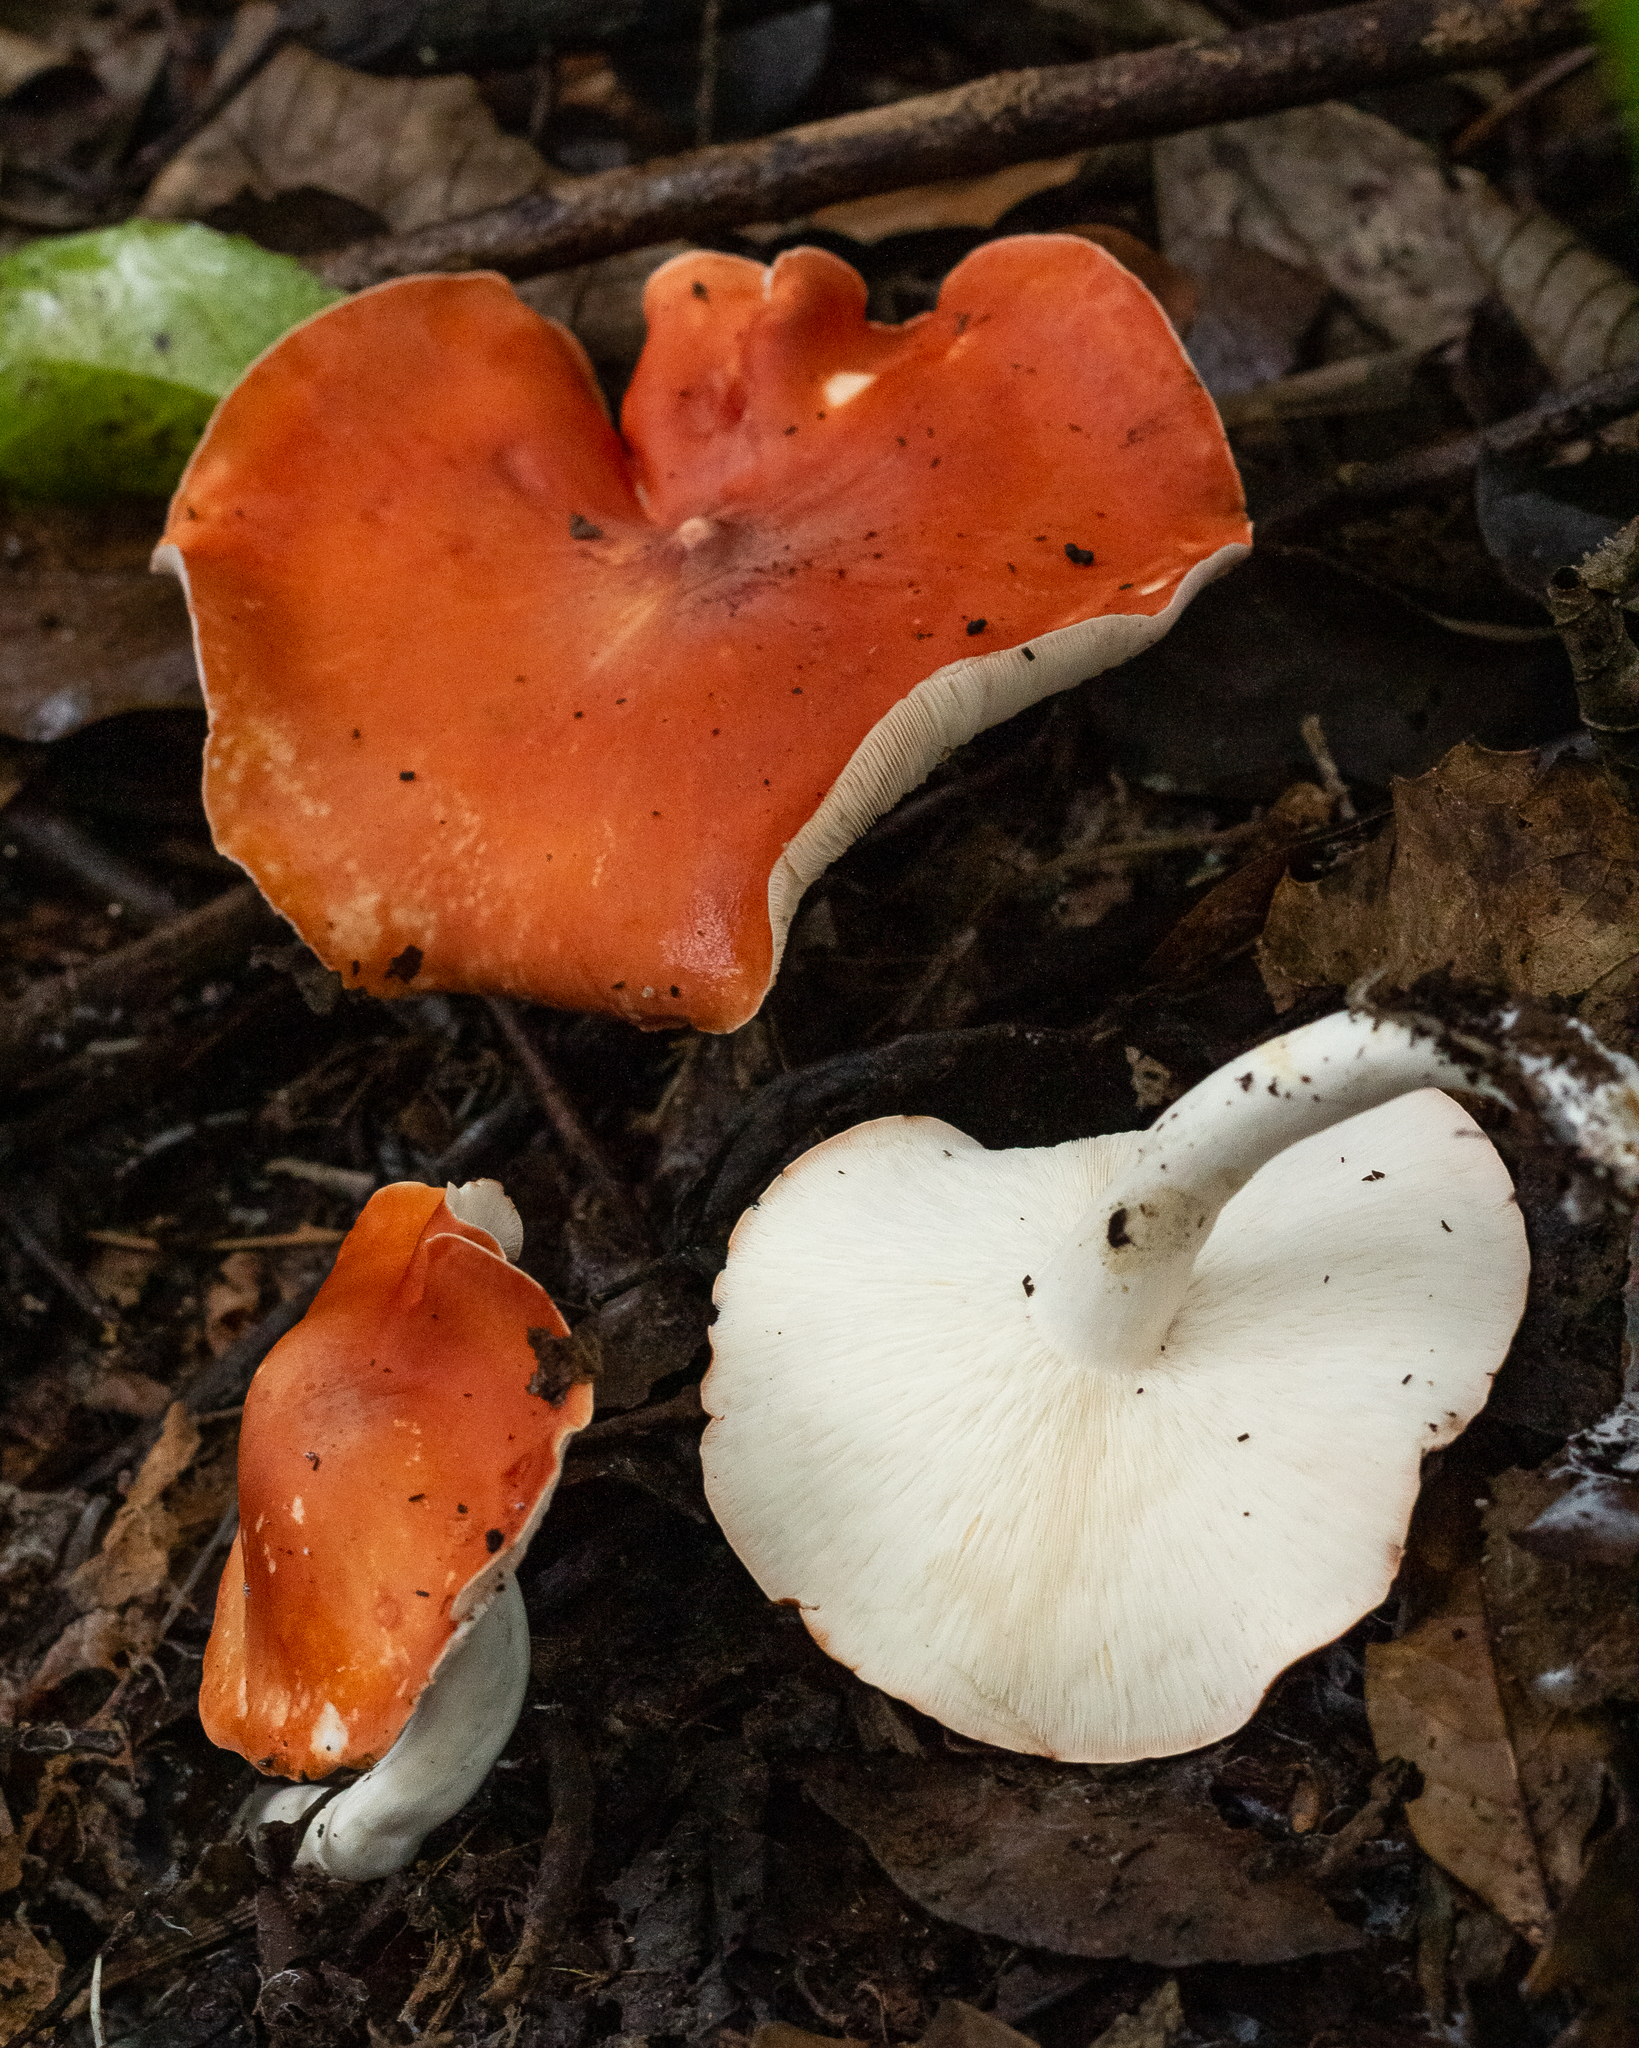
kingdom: Fungi
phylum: Basidiomycota
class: Agaricomycetes
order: Agaricales
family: Tricholomataceae
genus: Leucopaxillus
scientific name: Leucopaxillus gracillimus
